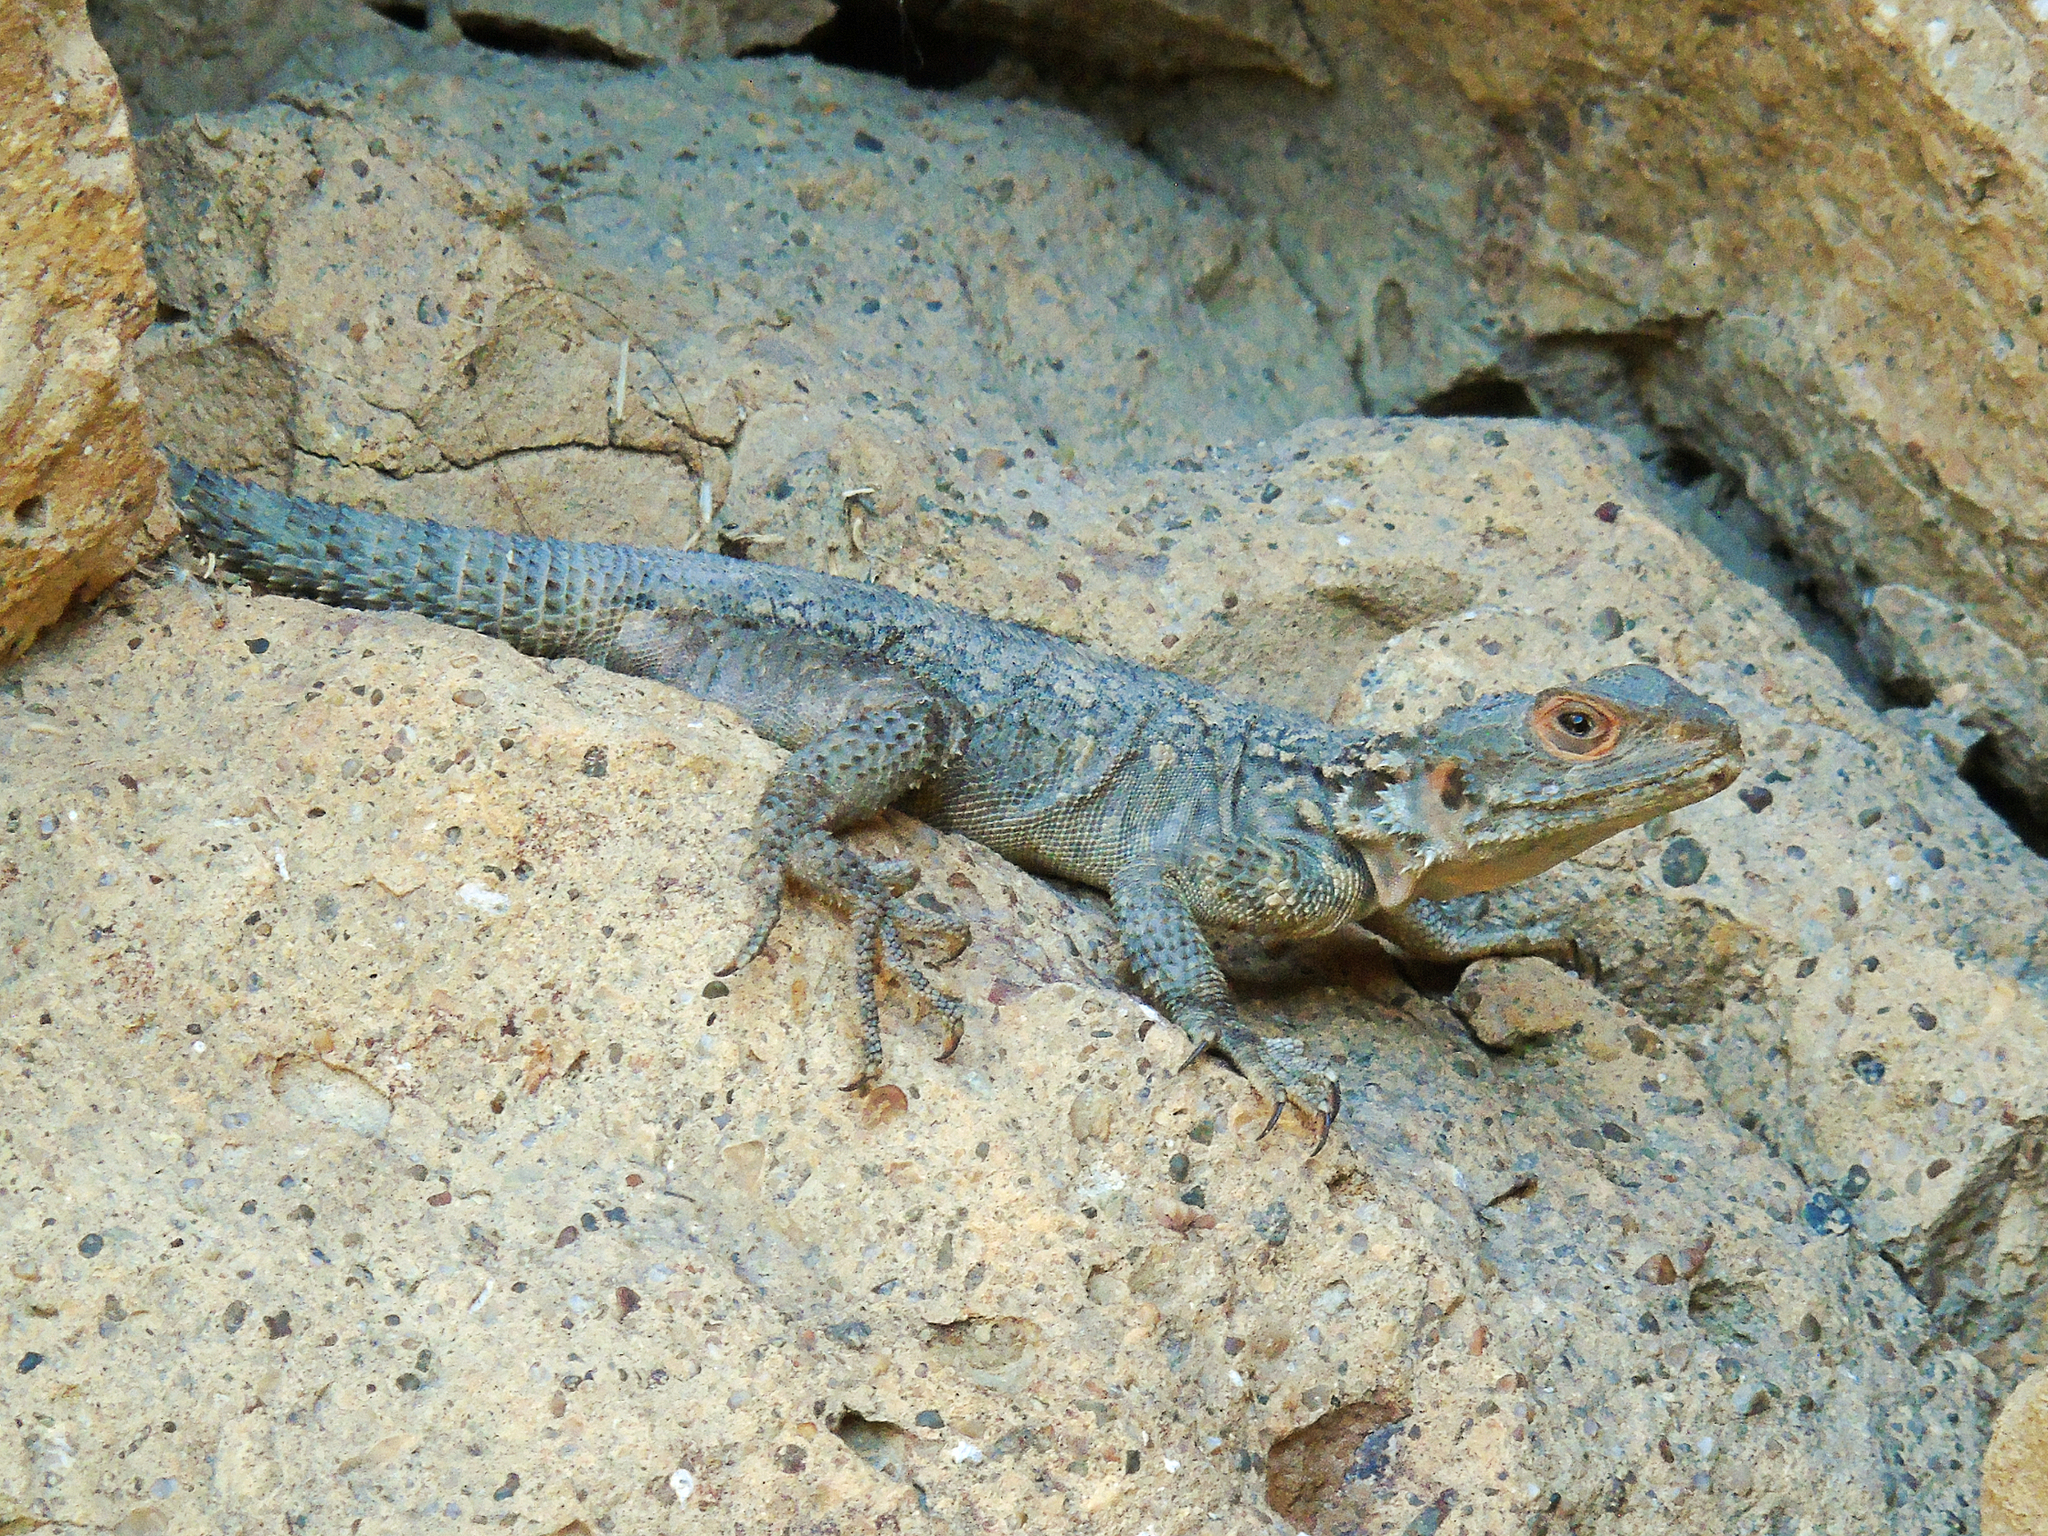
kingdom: Animalia
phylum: Chordata
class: Squamata
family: Agamidae
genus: Paralaudakia
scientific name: Paralaudakia caucasia
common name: Caucasian agama
